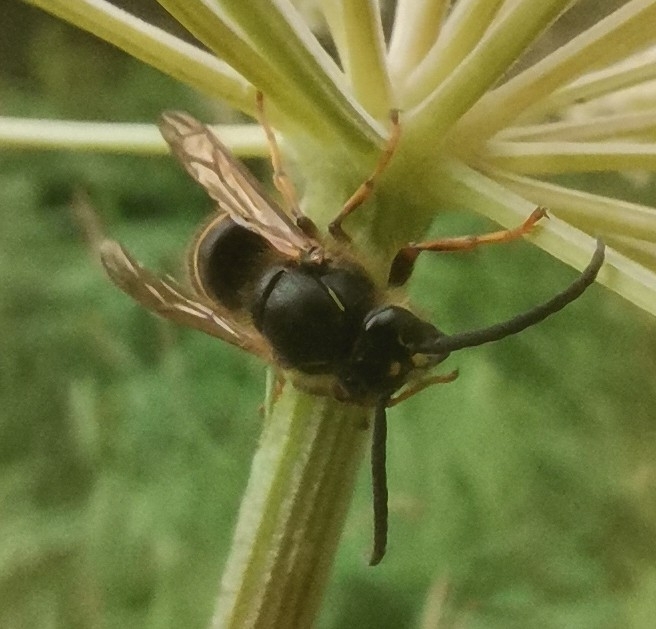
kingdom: Animalia
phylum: Arthropoda
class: Insecta
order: Hymenoptera
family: Vespidae
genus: Dolichovespula
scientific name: Dolichovespula saxonica
